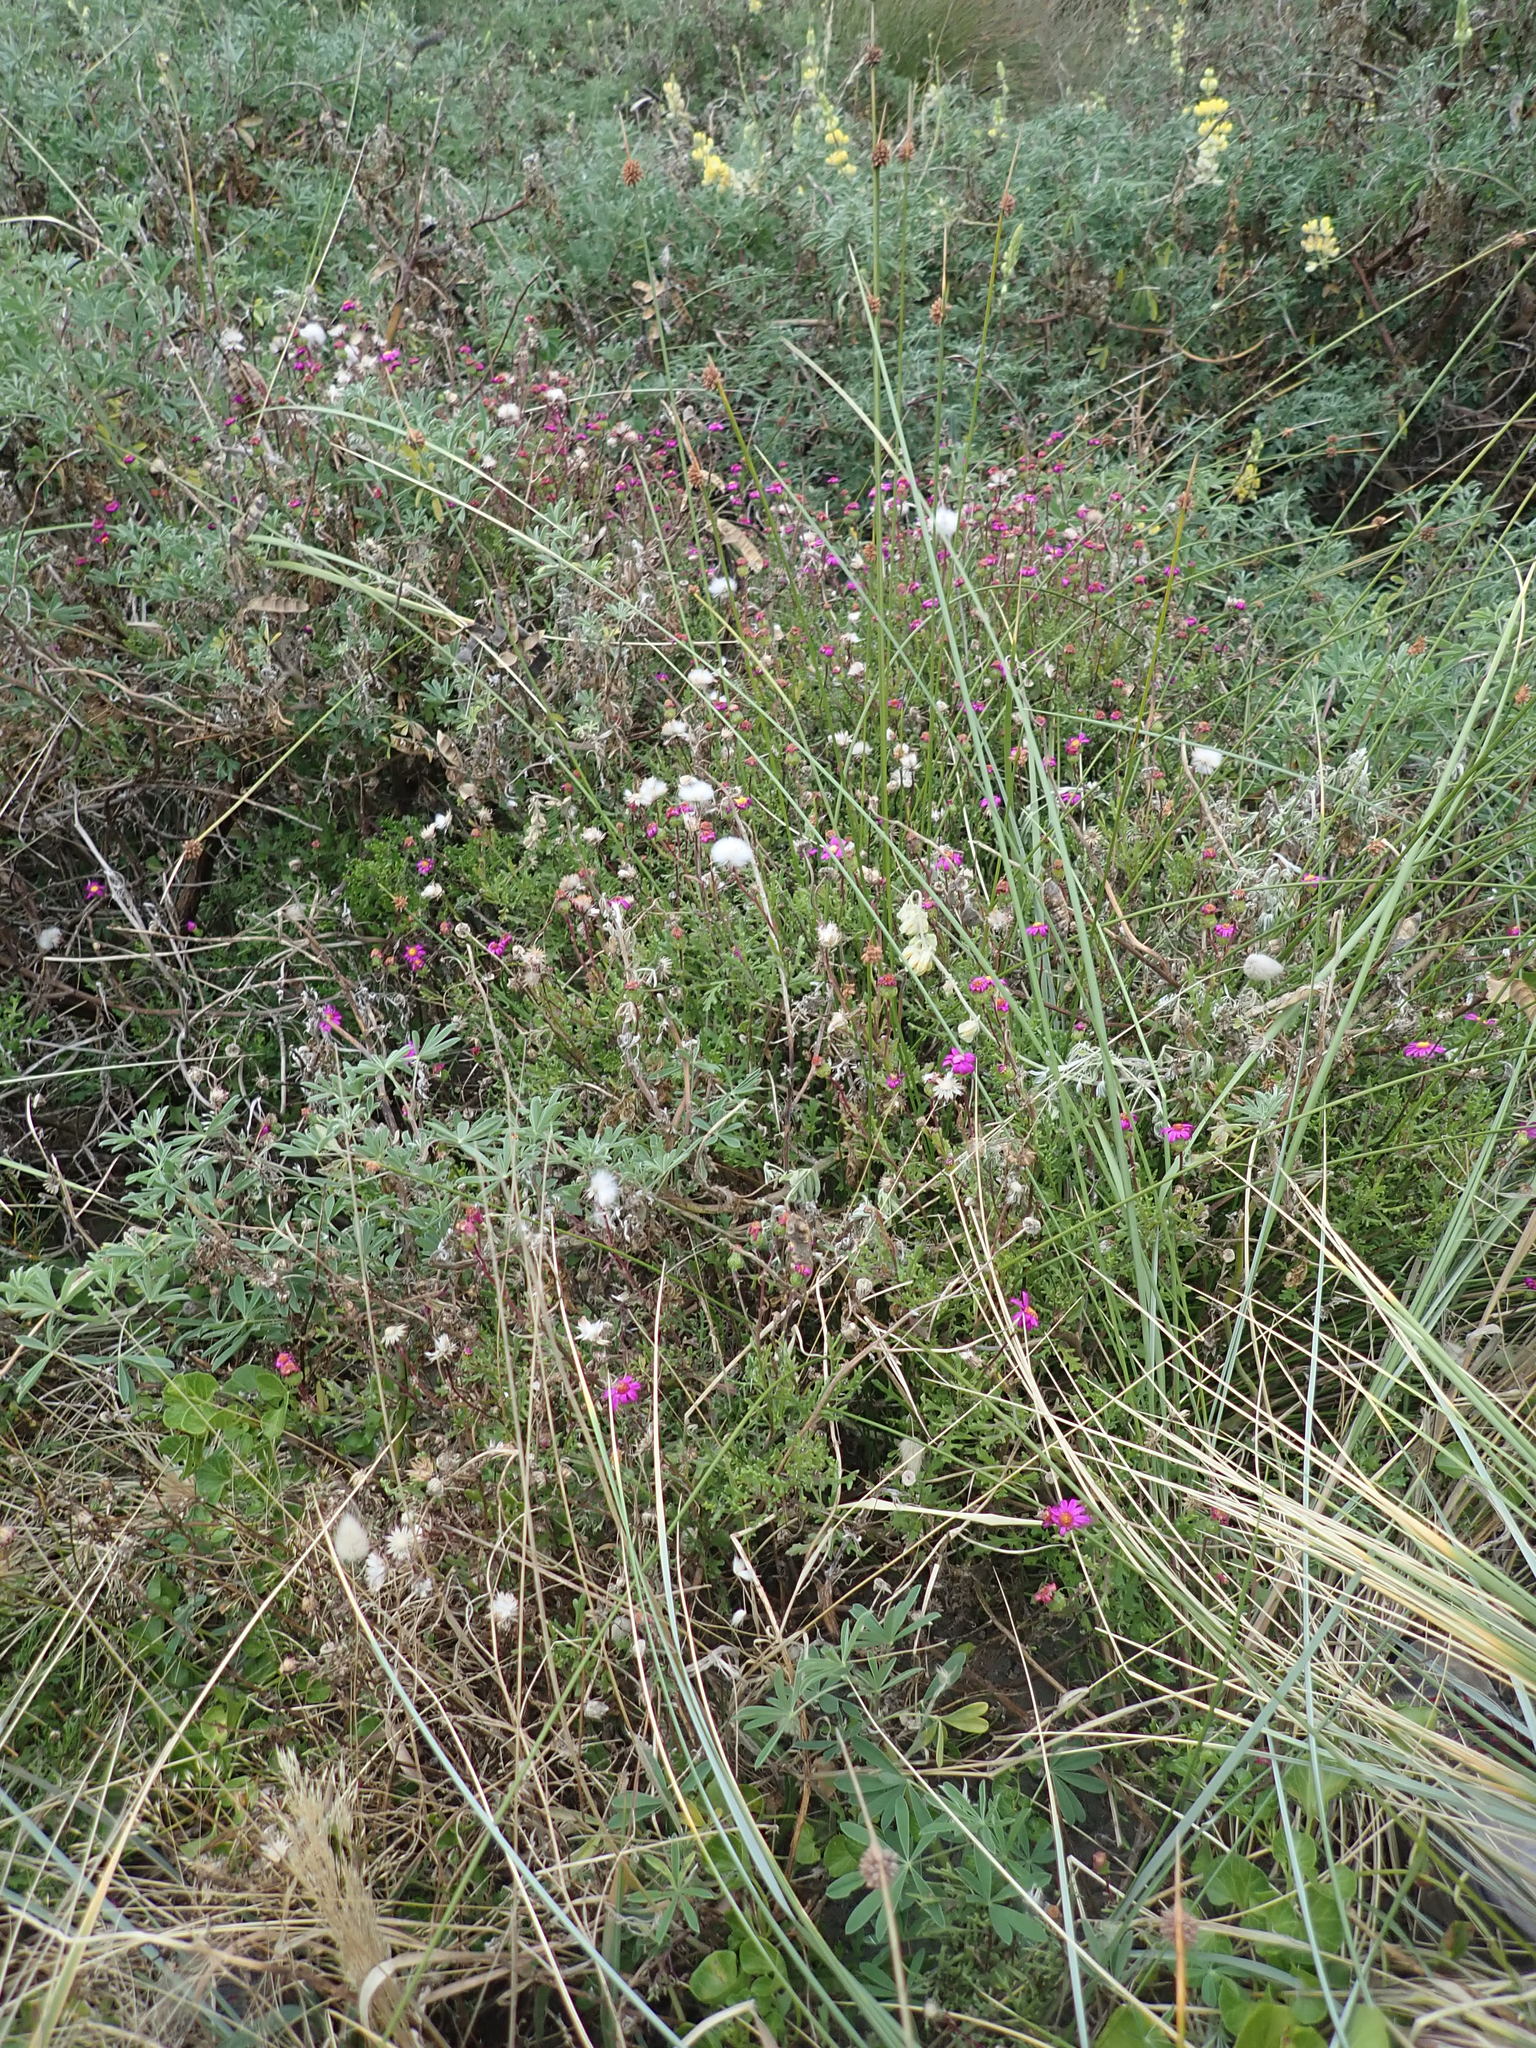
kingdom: Plantae
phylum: Tracheophyta
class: Magnoliopsida
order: Asterales
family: Asteraceae
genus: Senecio
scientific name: Senecio glastifolius
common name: Woad-leaved ragwort
